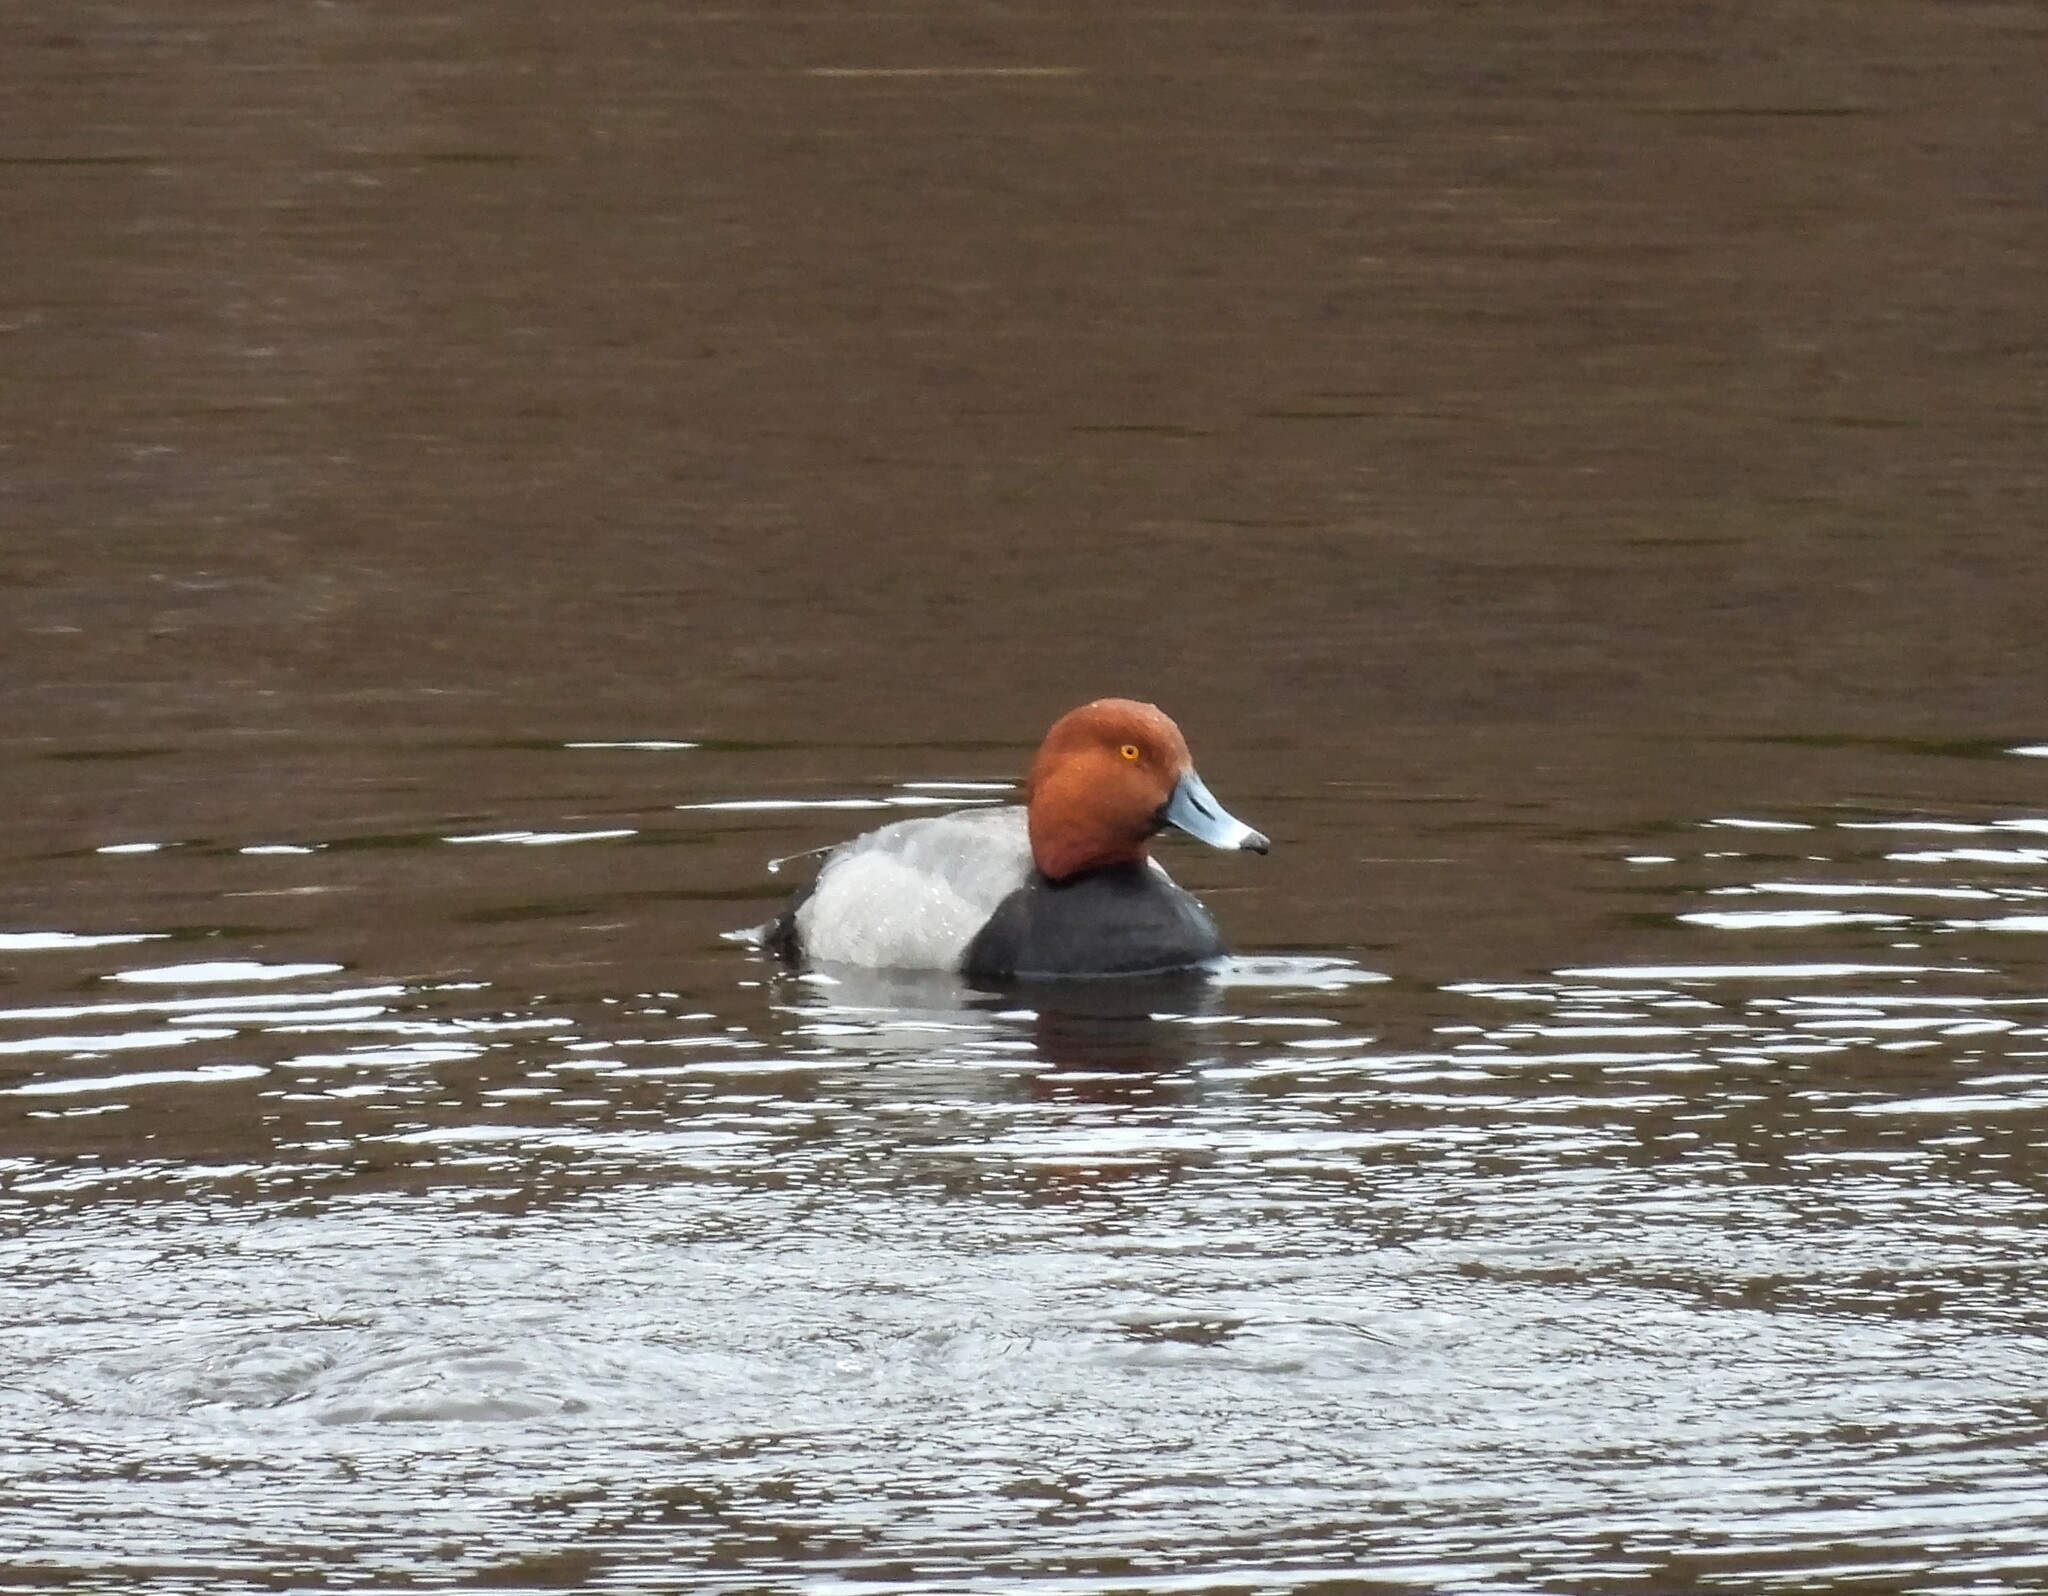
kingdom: Animalia
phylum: Chordata
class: Aves
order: Anseriformes
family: Anatidae
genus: Aythya
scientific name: Aythya americana
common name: Redhead
